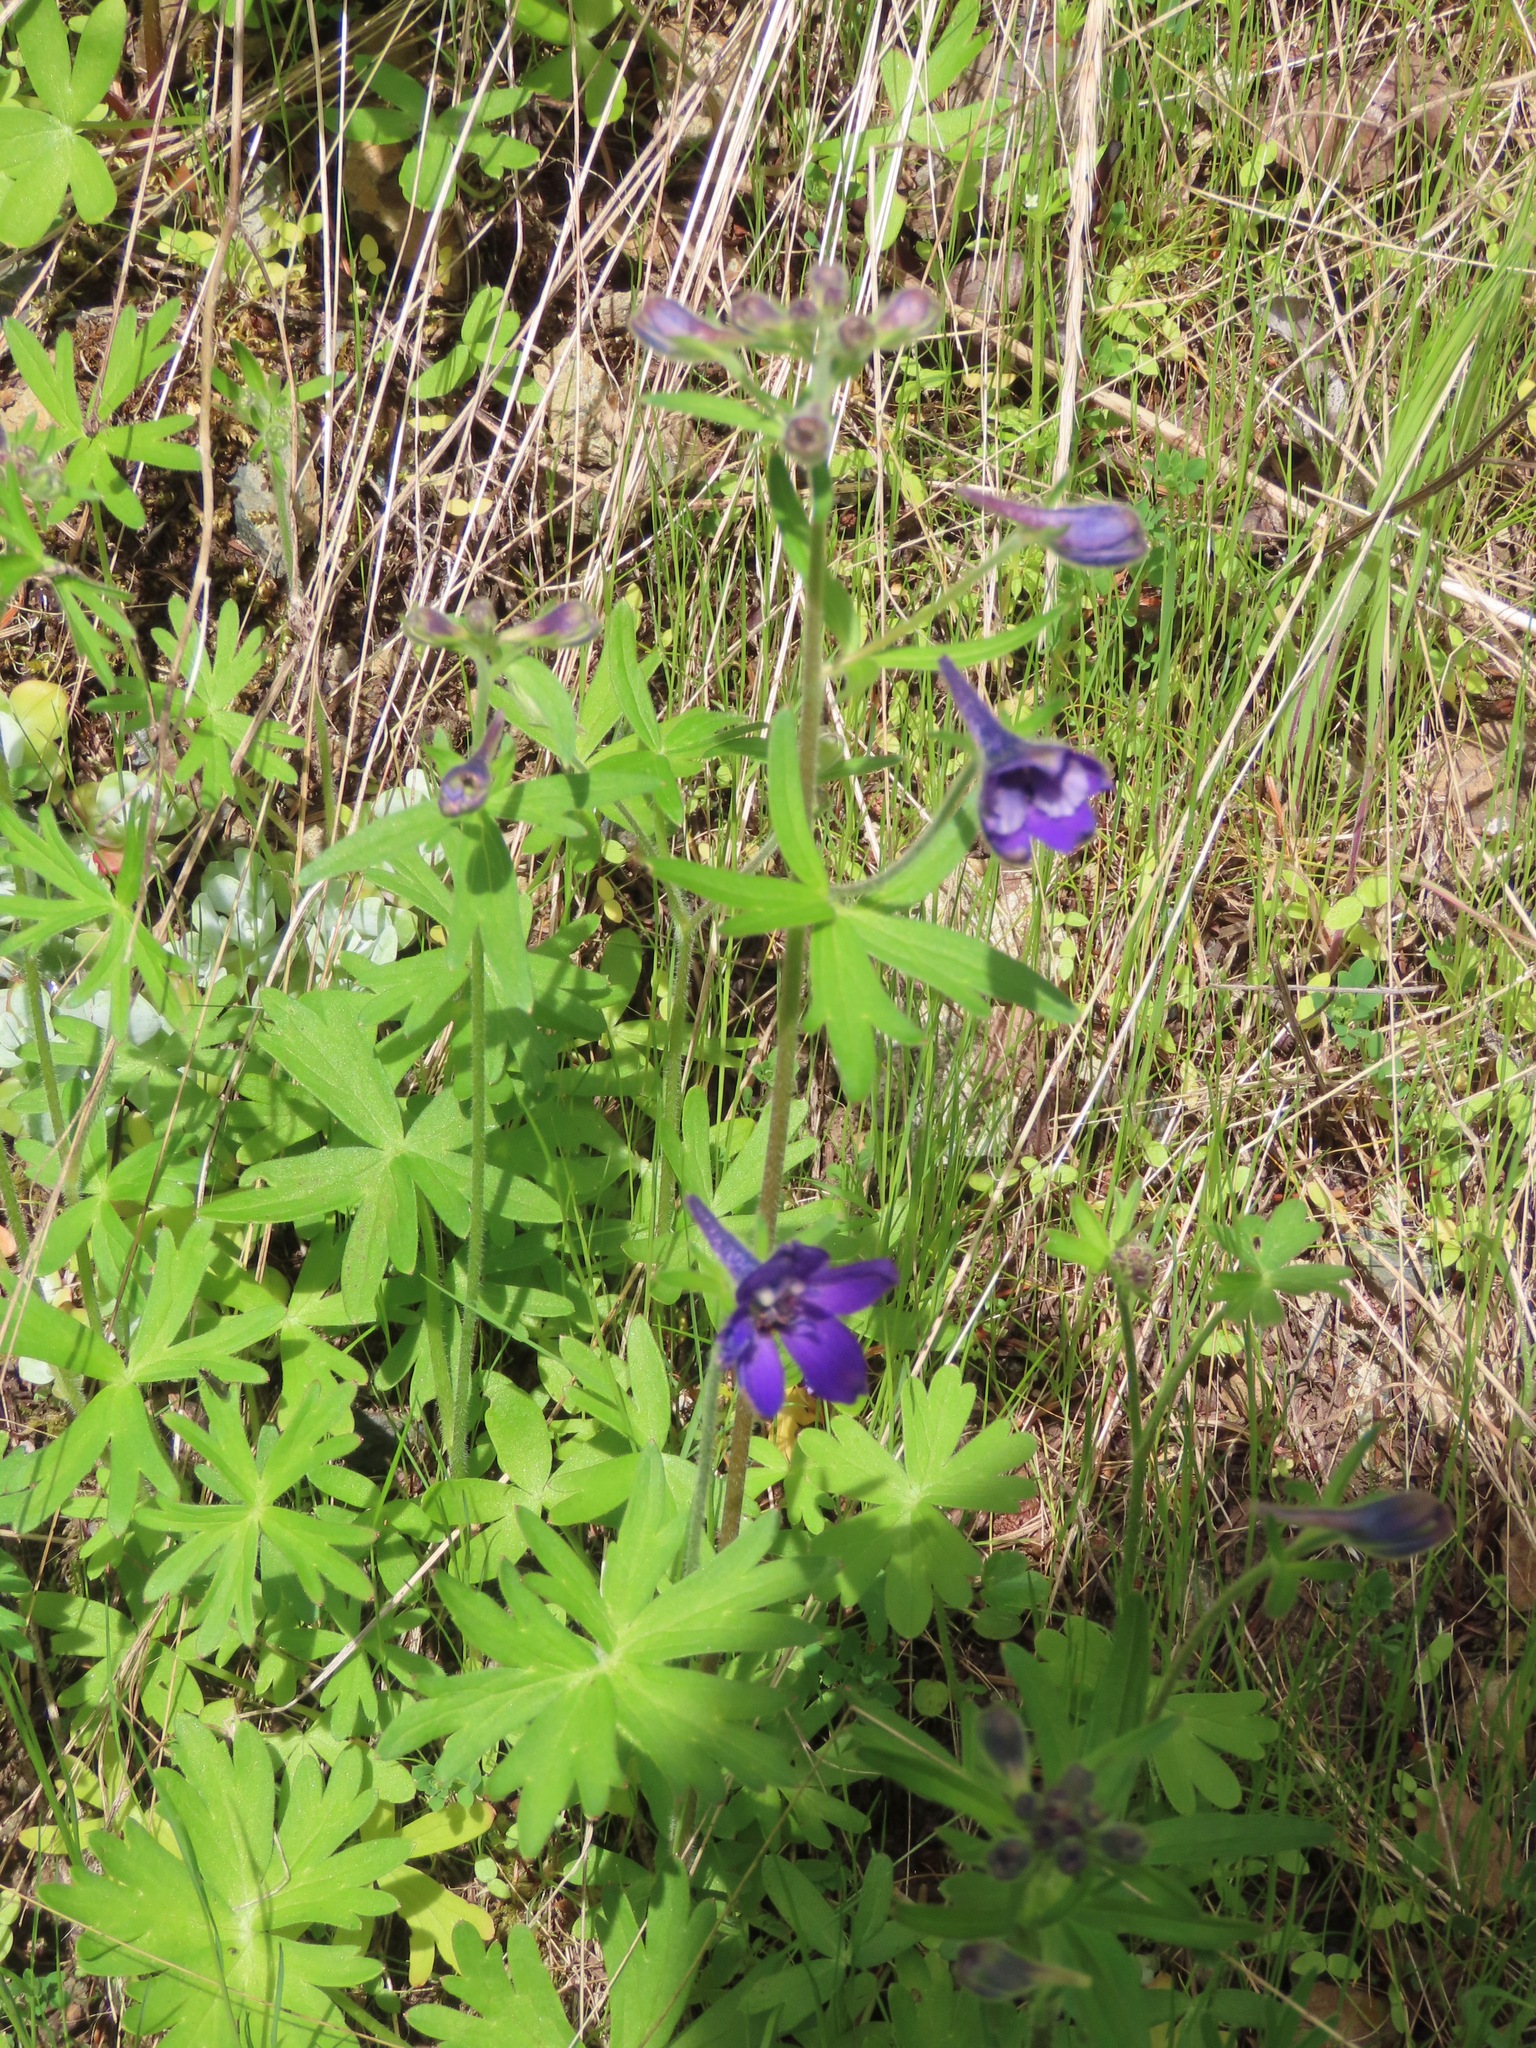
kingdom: Plantae
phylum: Tracheophyta
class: Magnoliopsida
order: Ranunculales
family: Ranunculaceae
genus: Delphinium
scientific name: Delphinium menziesii
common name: Menzies's larkspur
